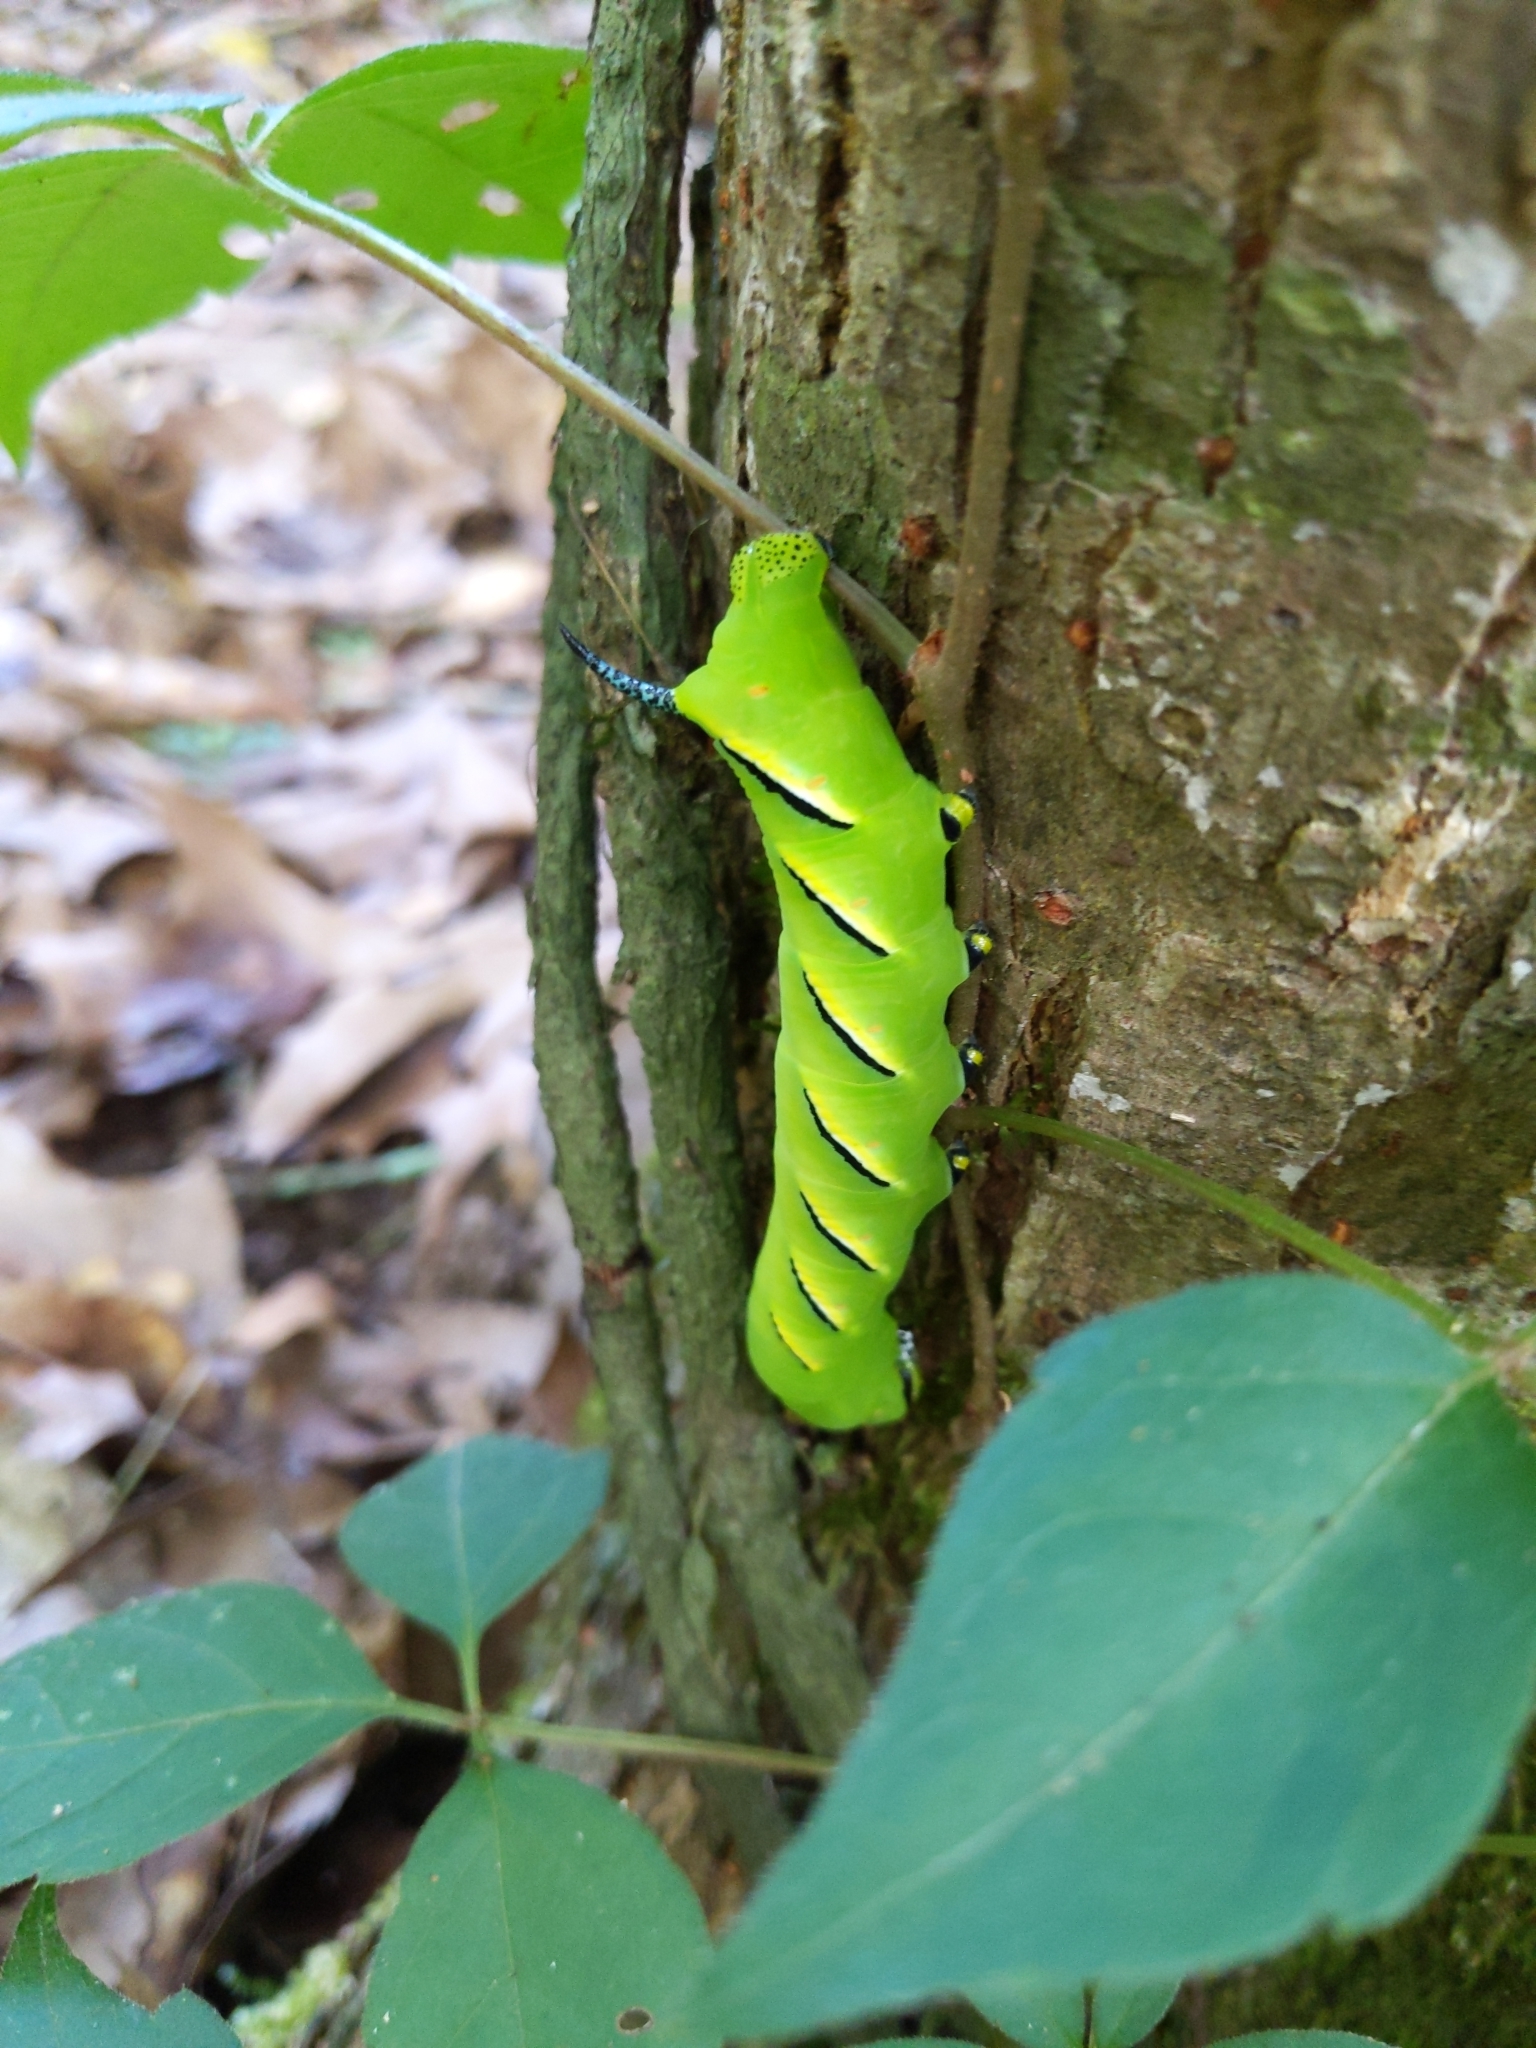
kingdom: Animalia
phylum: Arthropoda
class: Insecta
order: Lepidoptera
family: Sphingidae
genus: Sphinx
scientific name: Sphinx kalmiae
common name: Laurel sphinx
